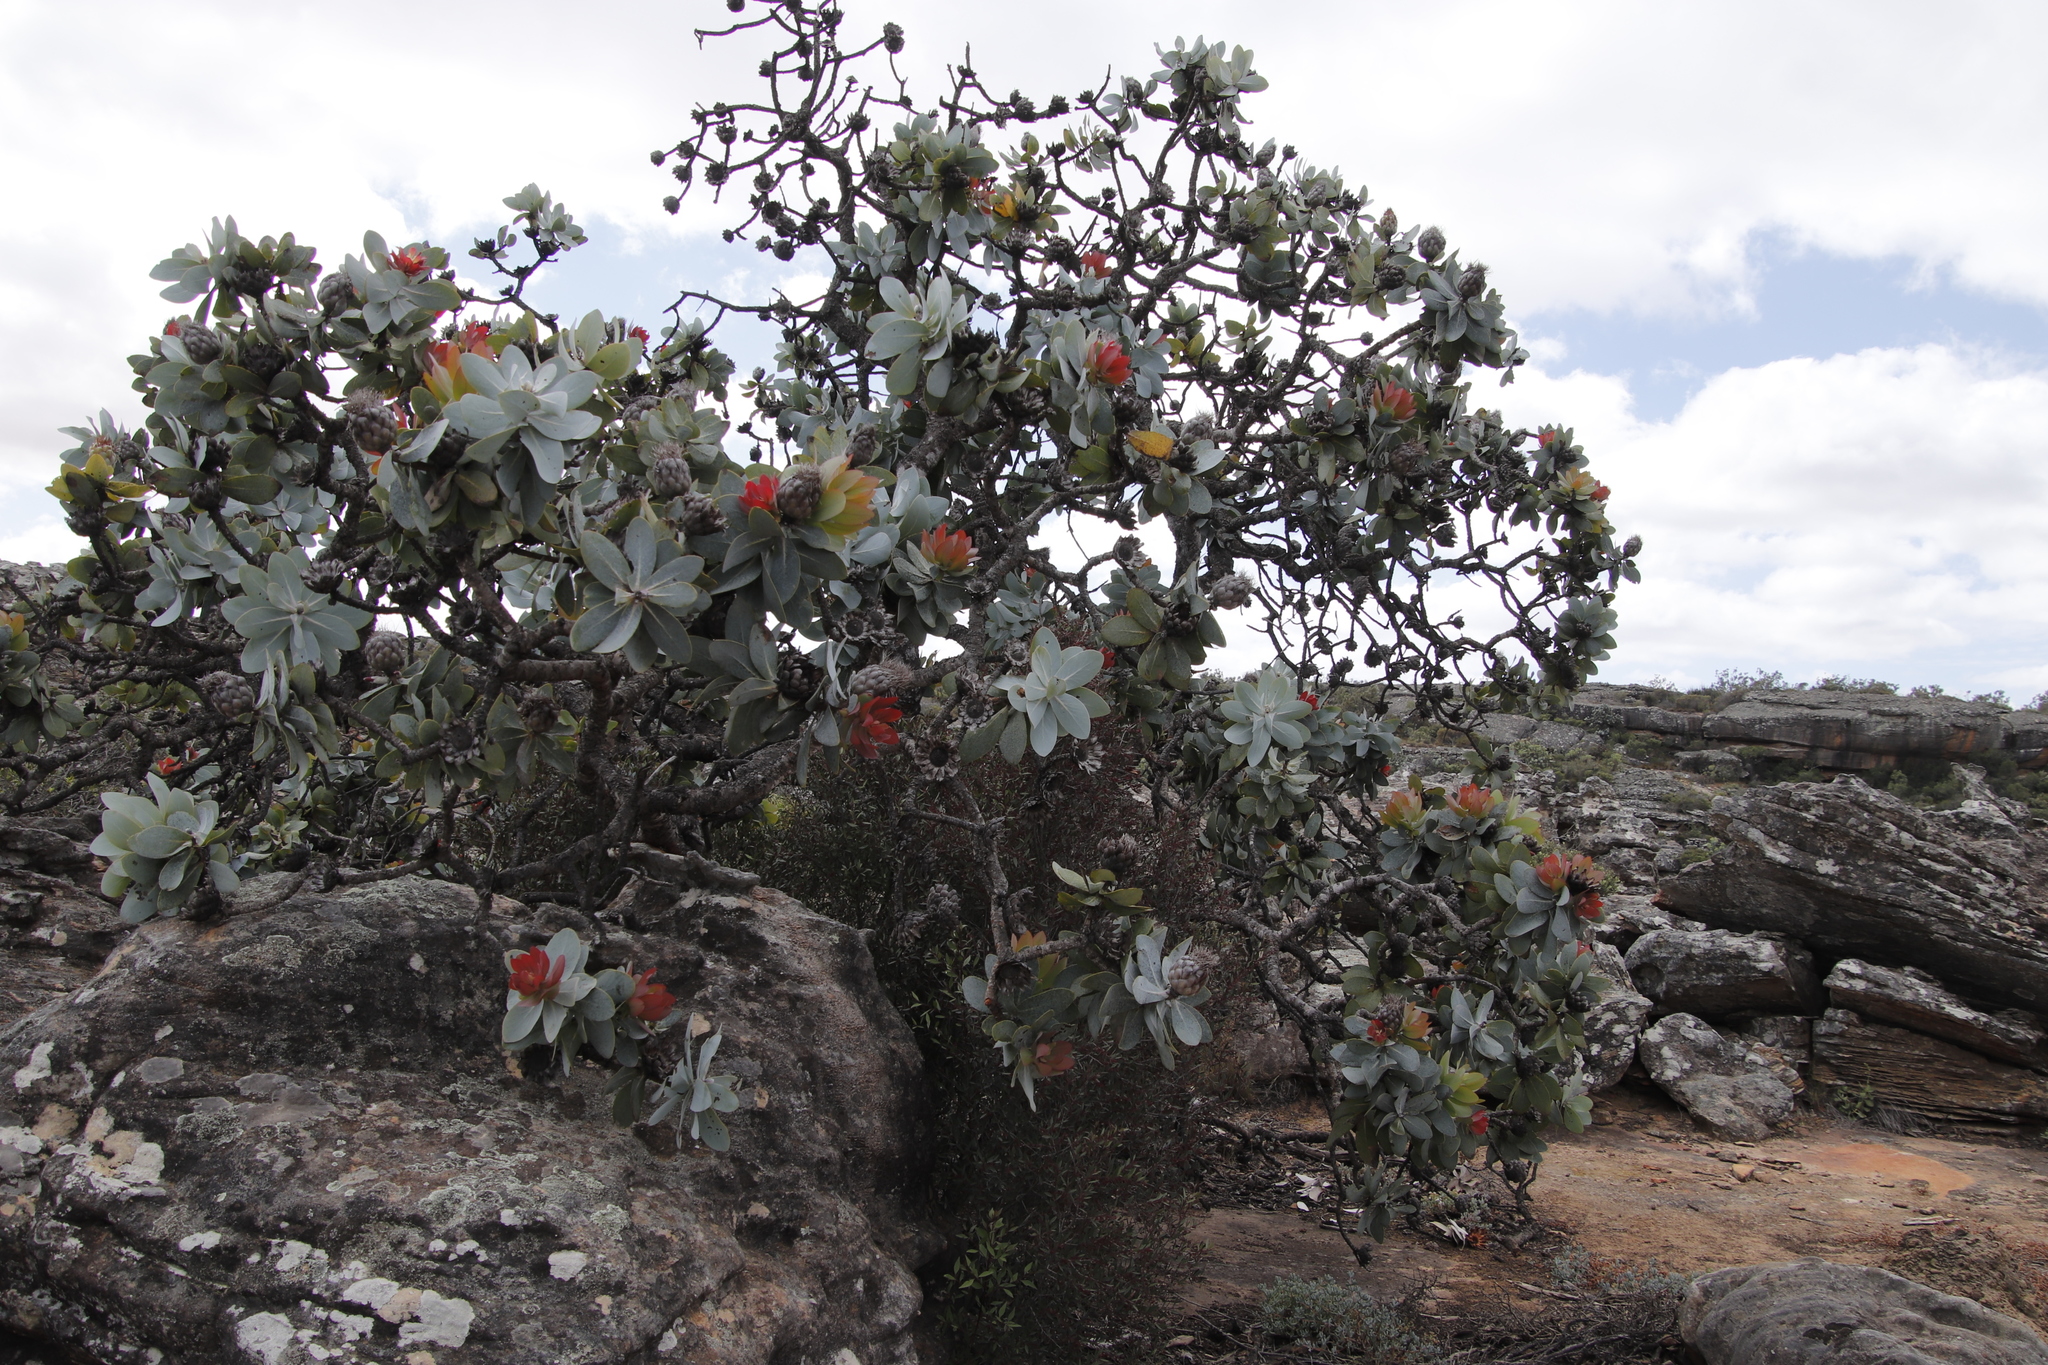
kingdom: Plantae
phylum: Tracheophyta
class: Magnoliopsida
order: Proteales
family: Proteaceae
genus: Protea
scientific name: Protea nitida
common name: Tree protea
